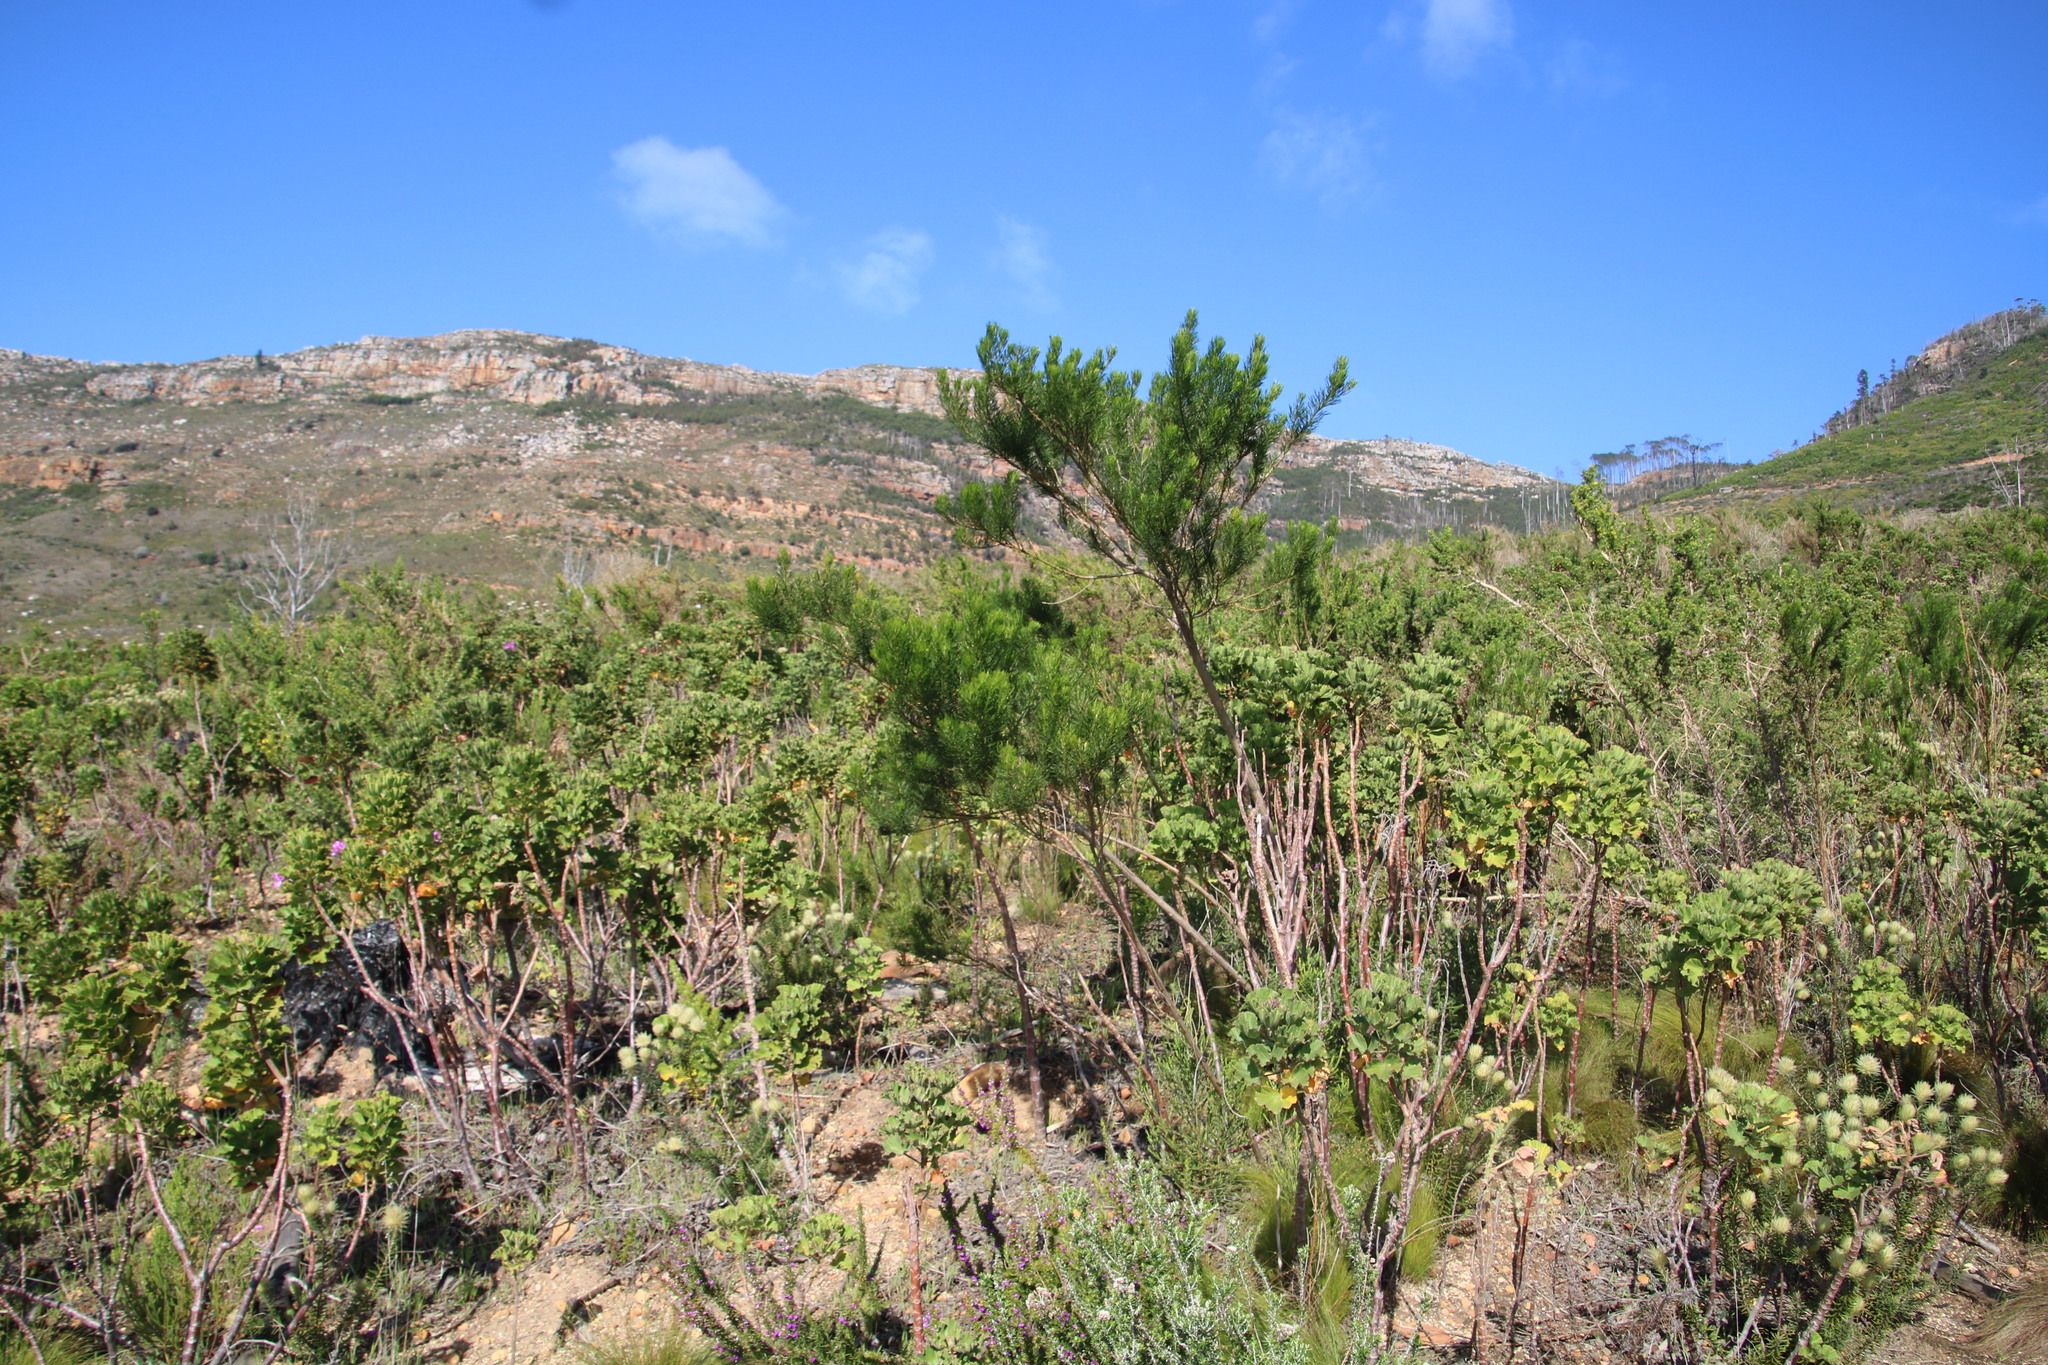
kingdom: Plantae
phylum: Tracheophyta
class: Magnoliopsida
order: Fabales
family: Fabaceae
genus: Psoralea
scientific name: Psoralea pinnata
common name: African scurfpea
